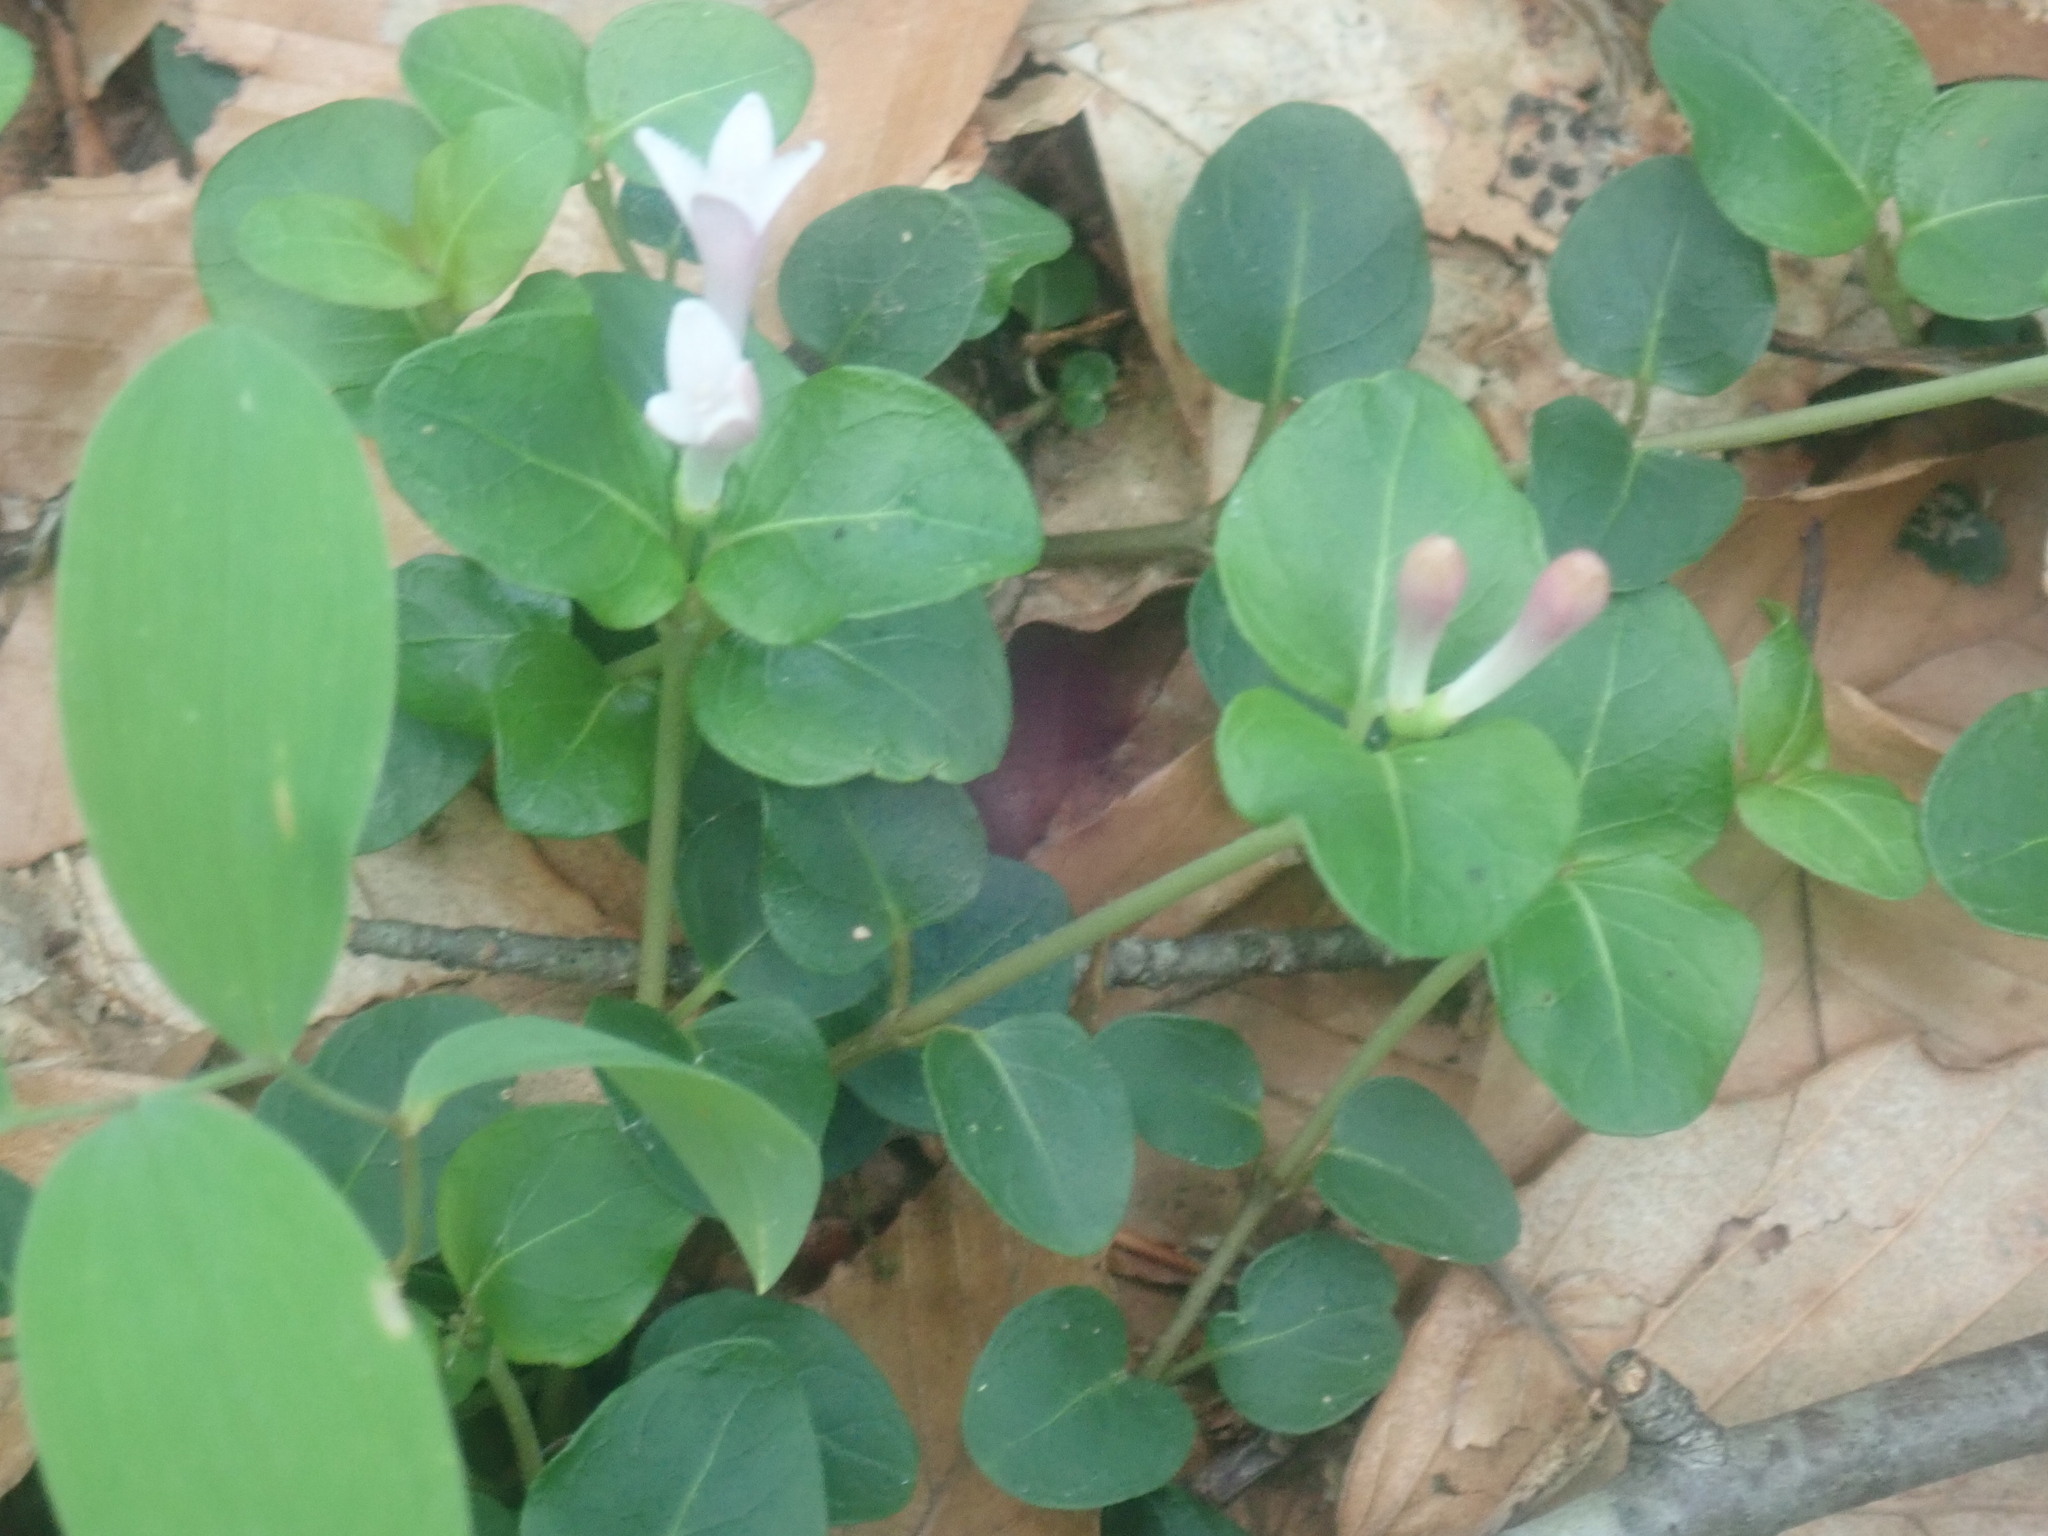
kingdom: Plantae
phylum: Tracheophyta
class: Magnoliopsida
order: Gentianales
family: Rubiaceae
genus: Mitchella
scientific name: Mitchella repens
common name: Partridge-berry
